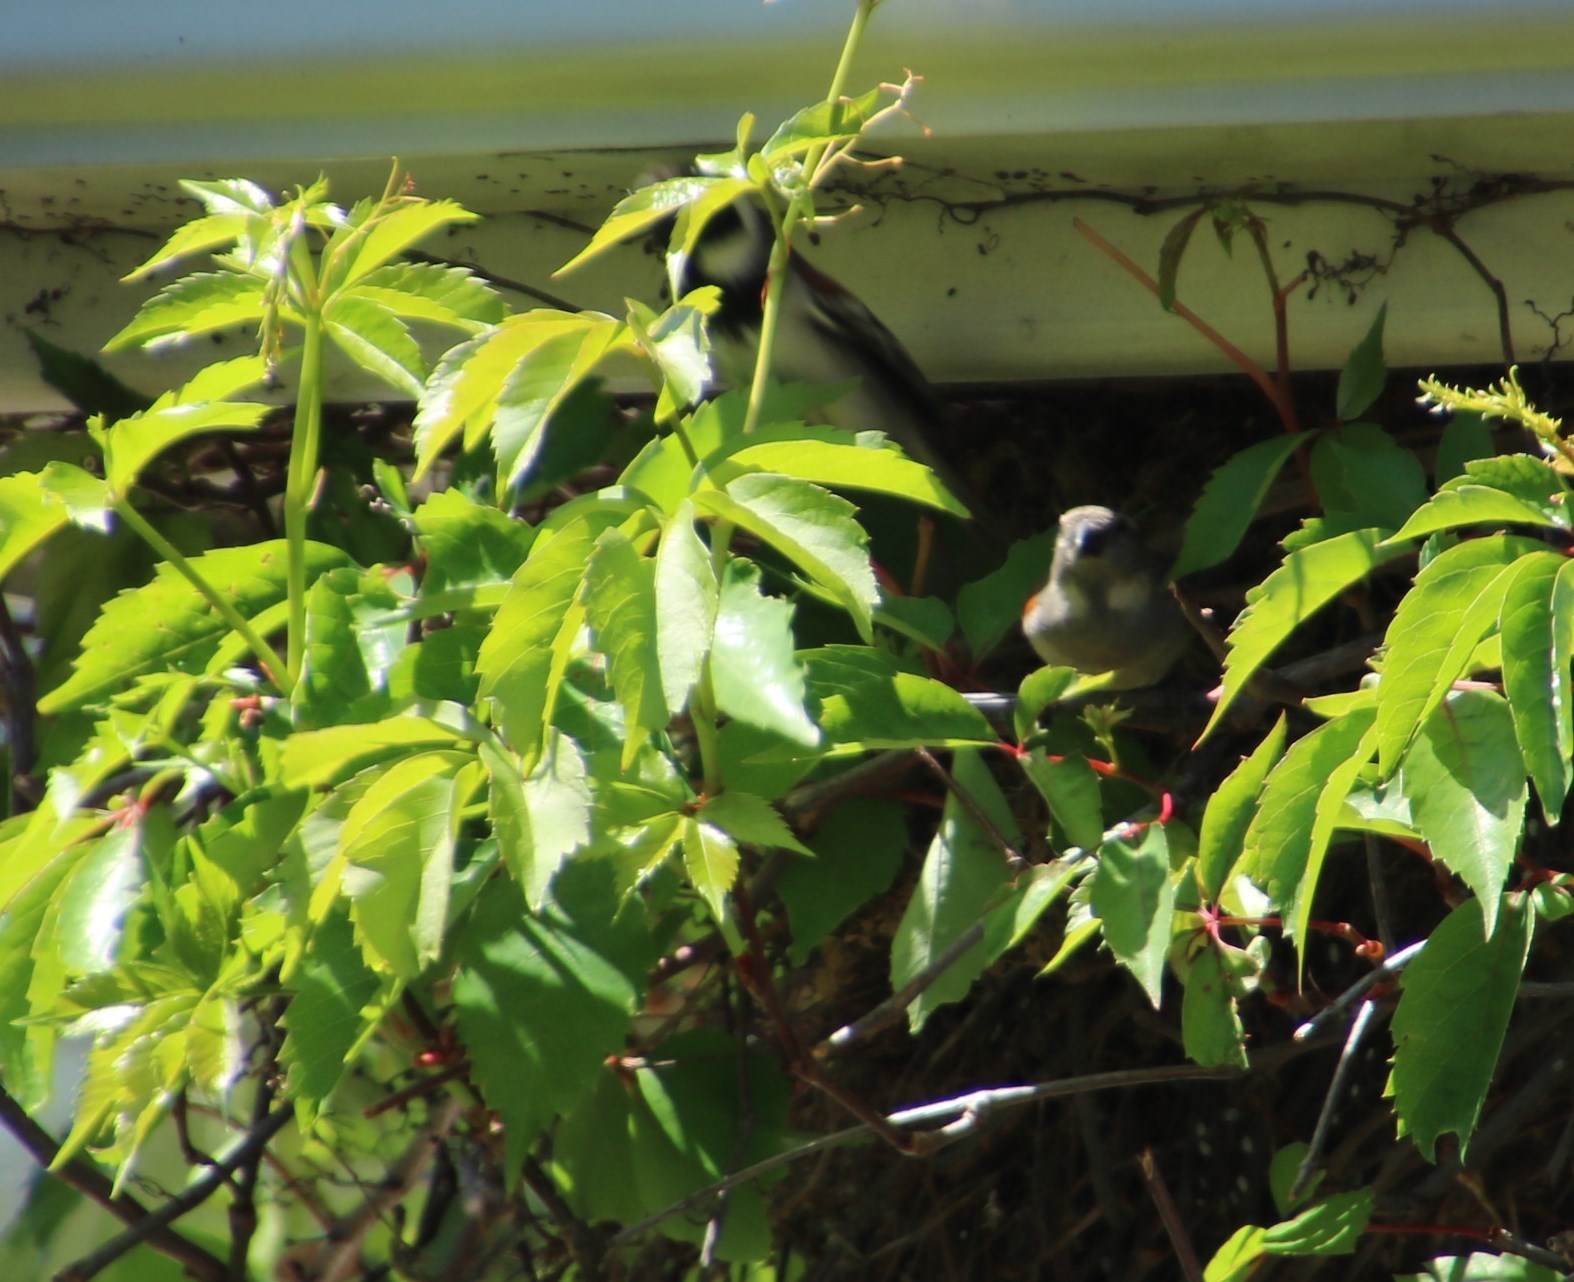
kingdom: Animalia
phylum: Chordata
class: Aves
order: Passeriformes
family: Passeridae
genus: Passer
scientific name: Passer melanurus
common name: Cape sparrow
